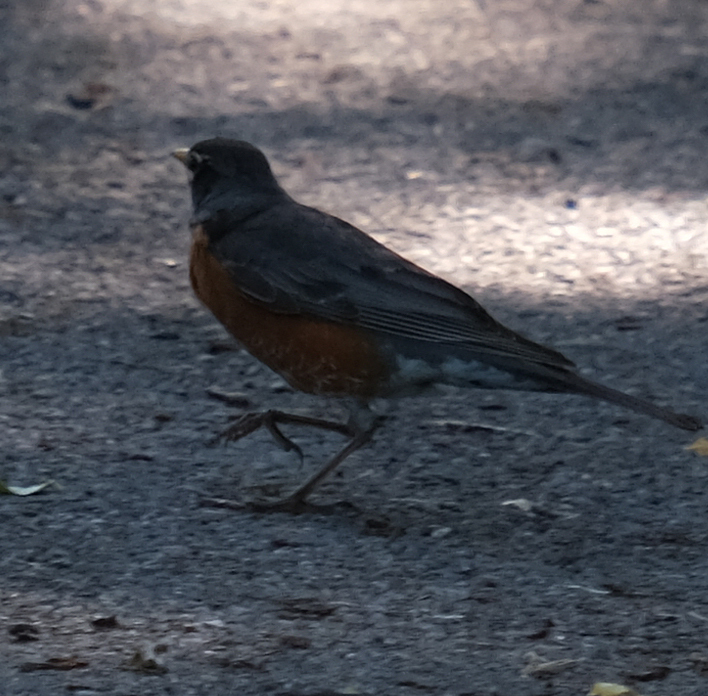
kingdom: Animalia
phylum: Chordata
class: Aves
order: Passeriformes
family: Turdidae
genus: Turdus
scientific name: Turdus migratorius
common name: American robin
